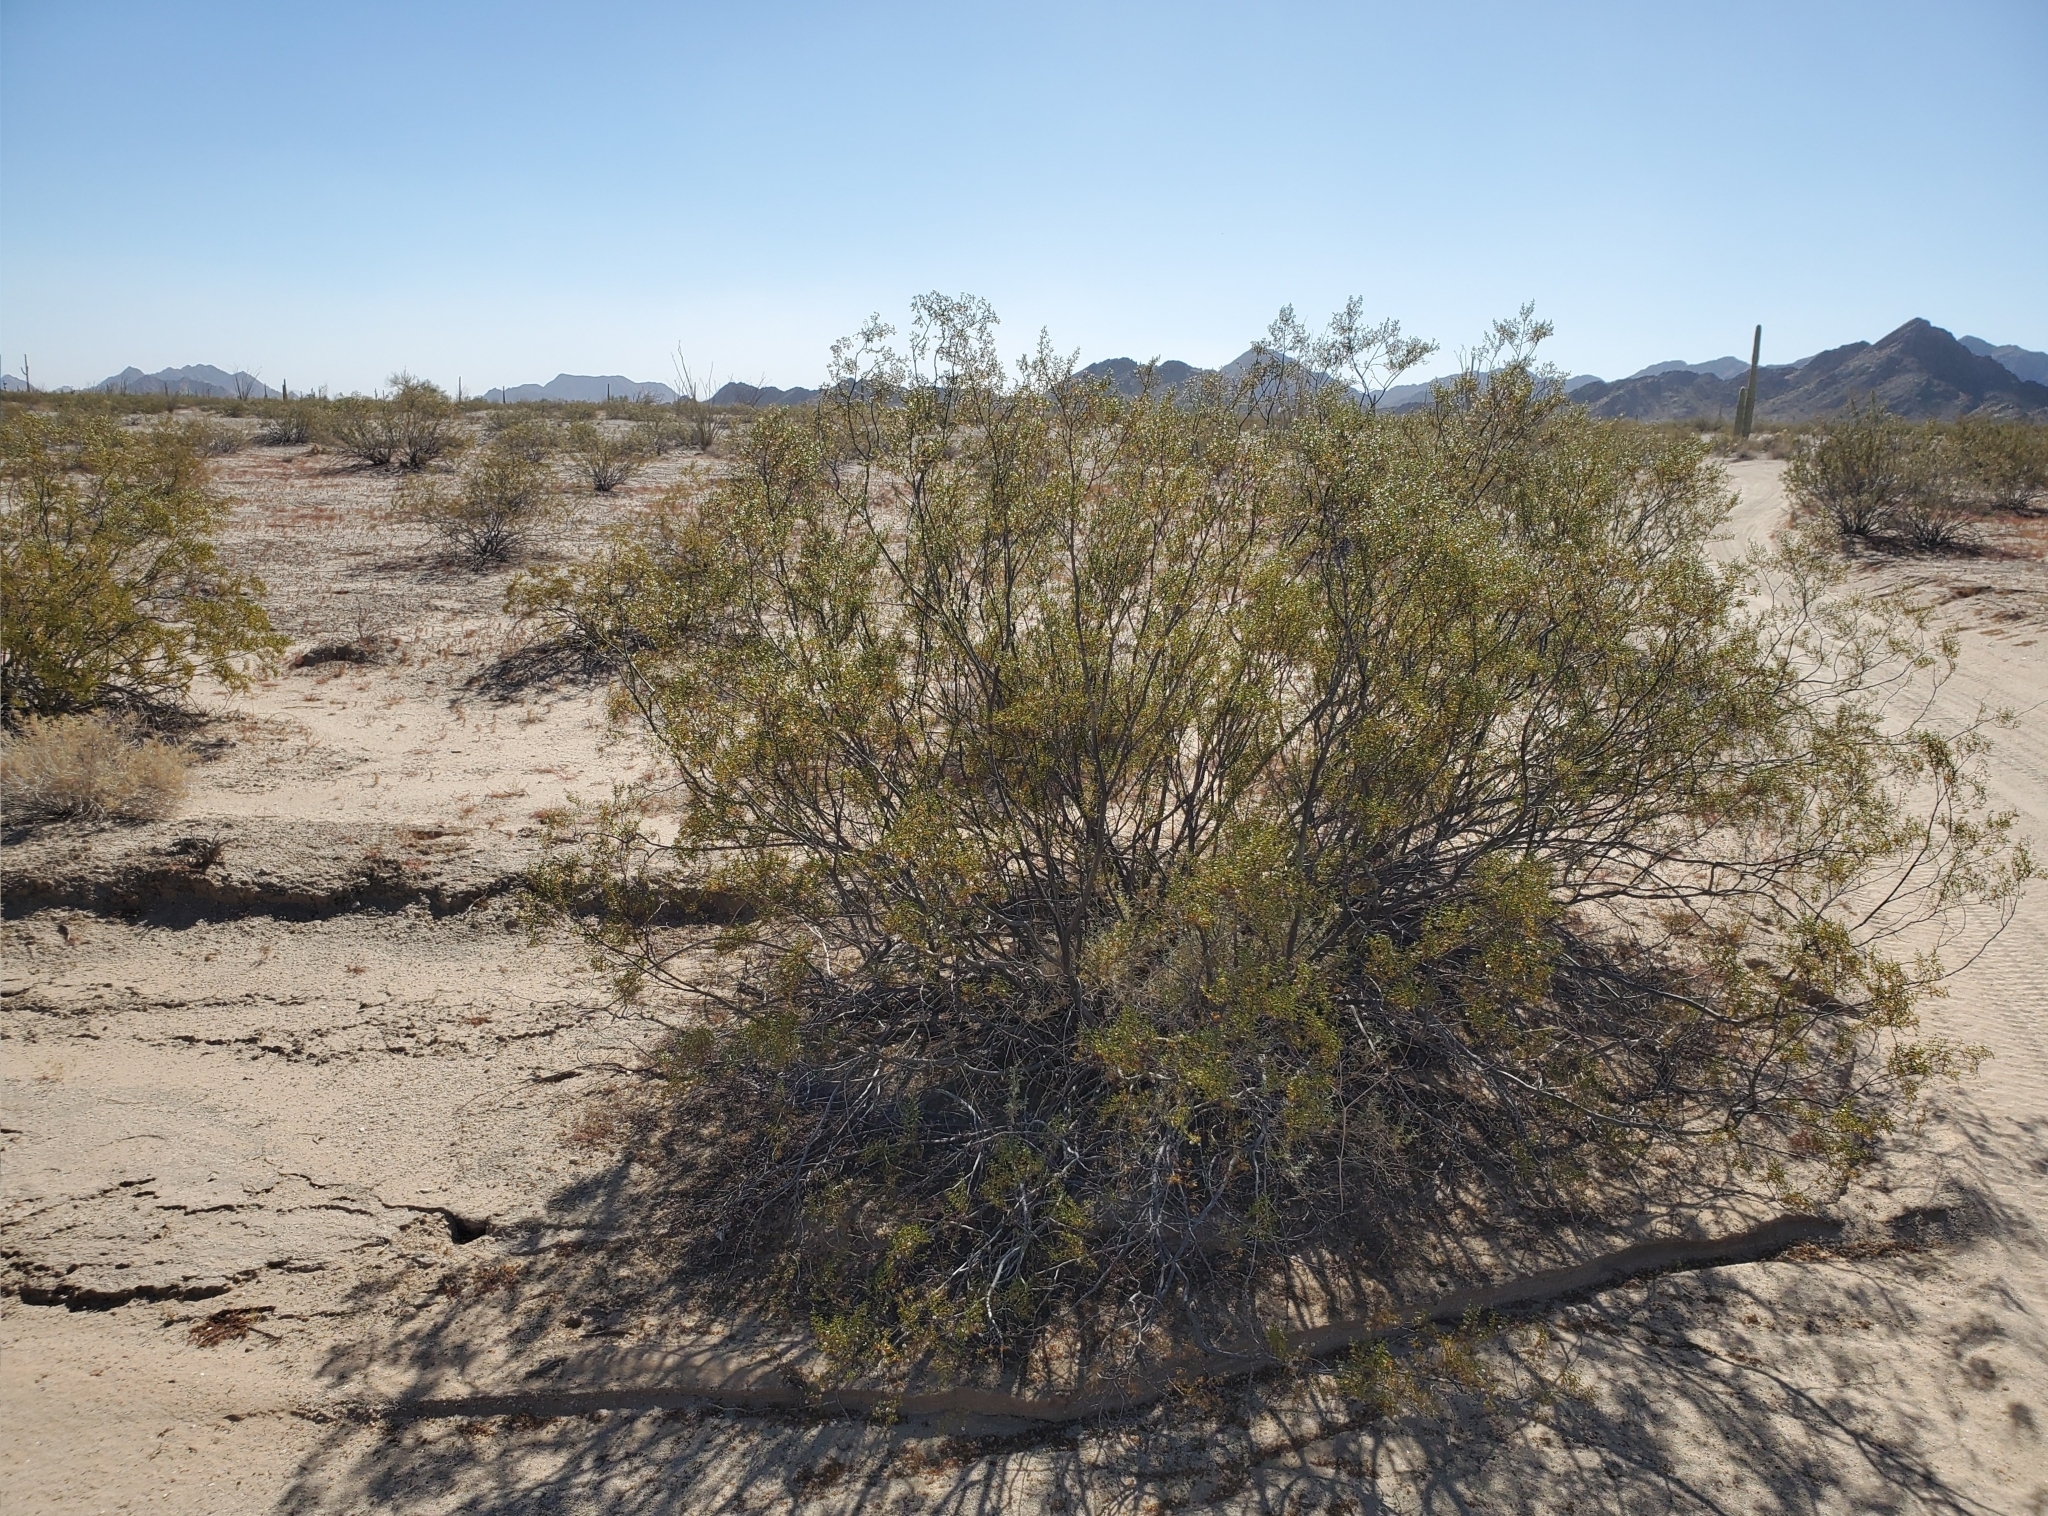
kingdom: Plantae
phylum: Tracheophyta
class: Magnoliopsida
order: Zygophyllales
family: Zygophyllaceae
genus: Larrea
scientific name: Larrea tridentata
